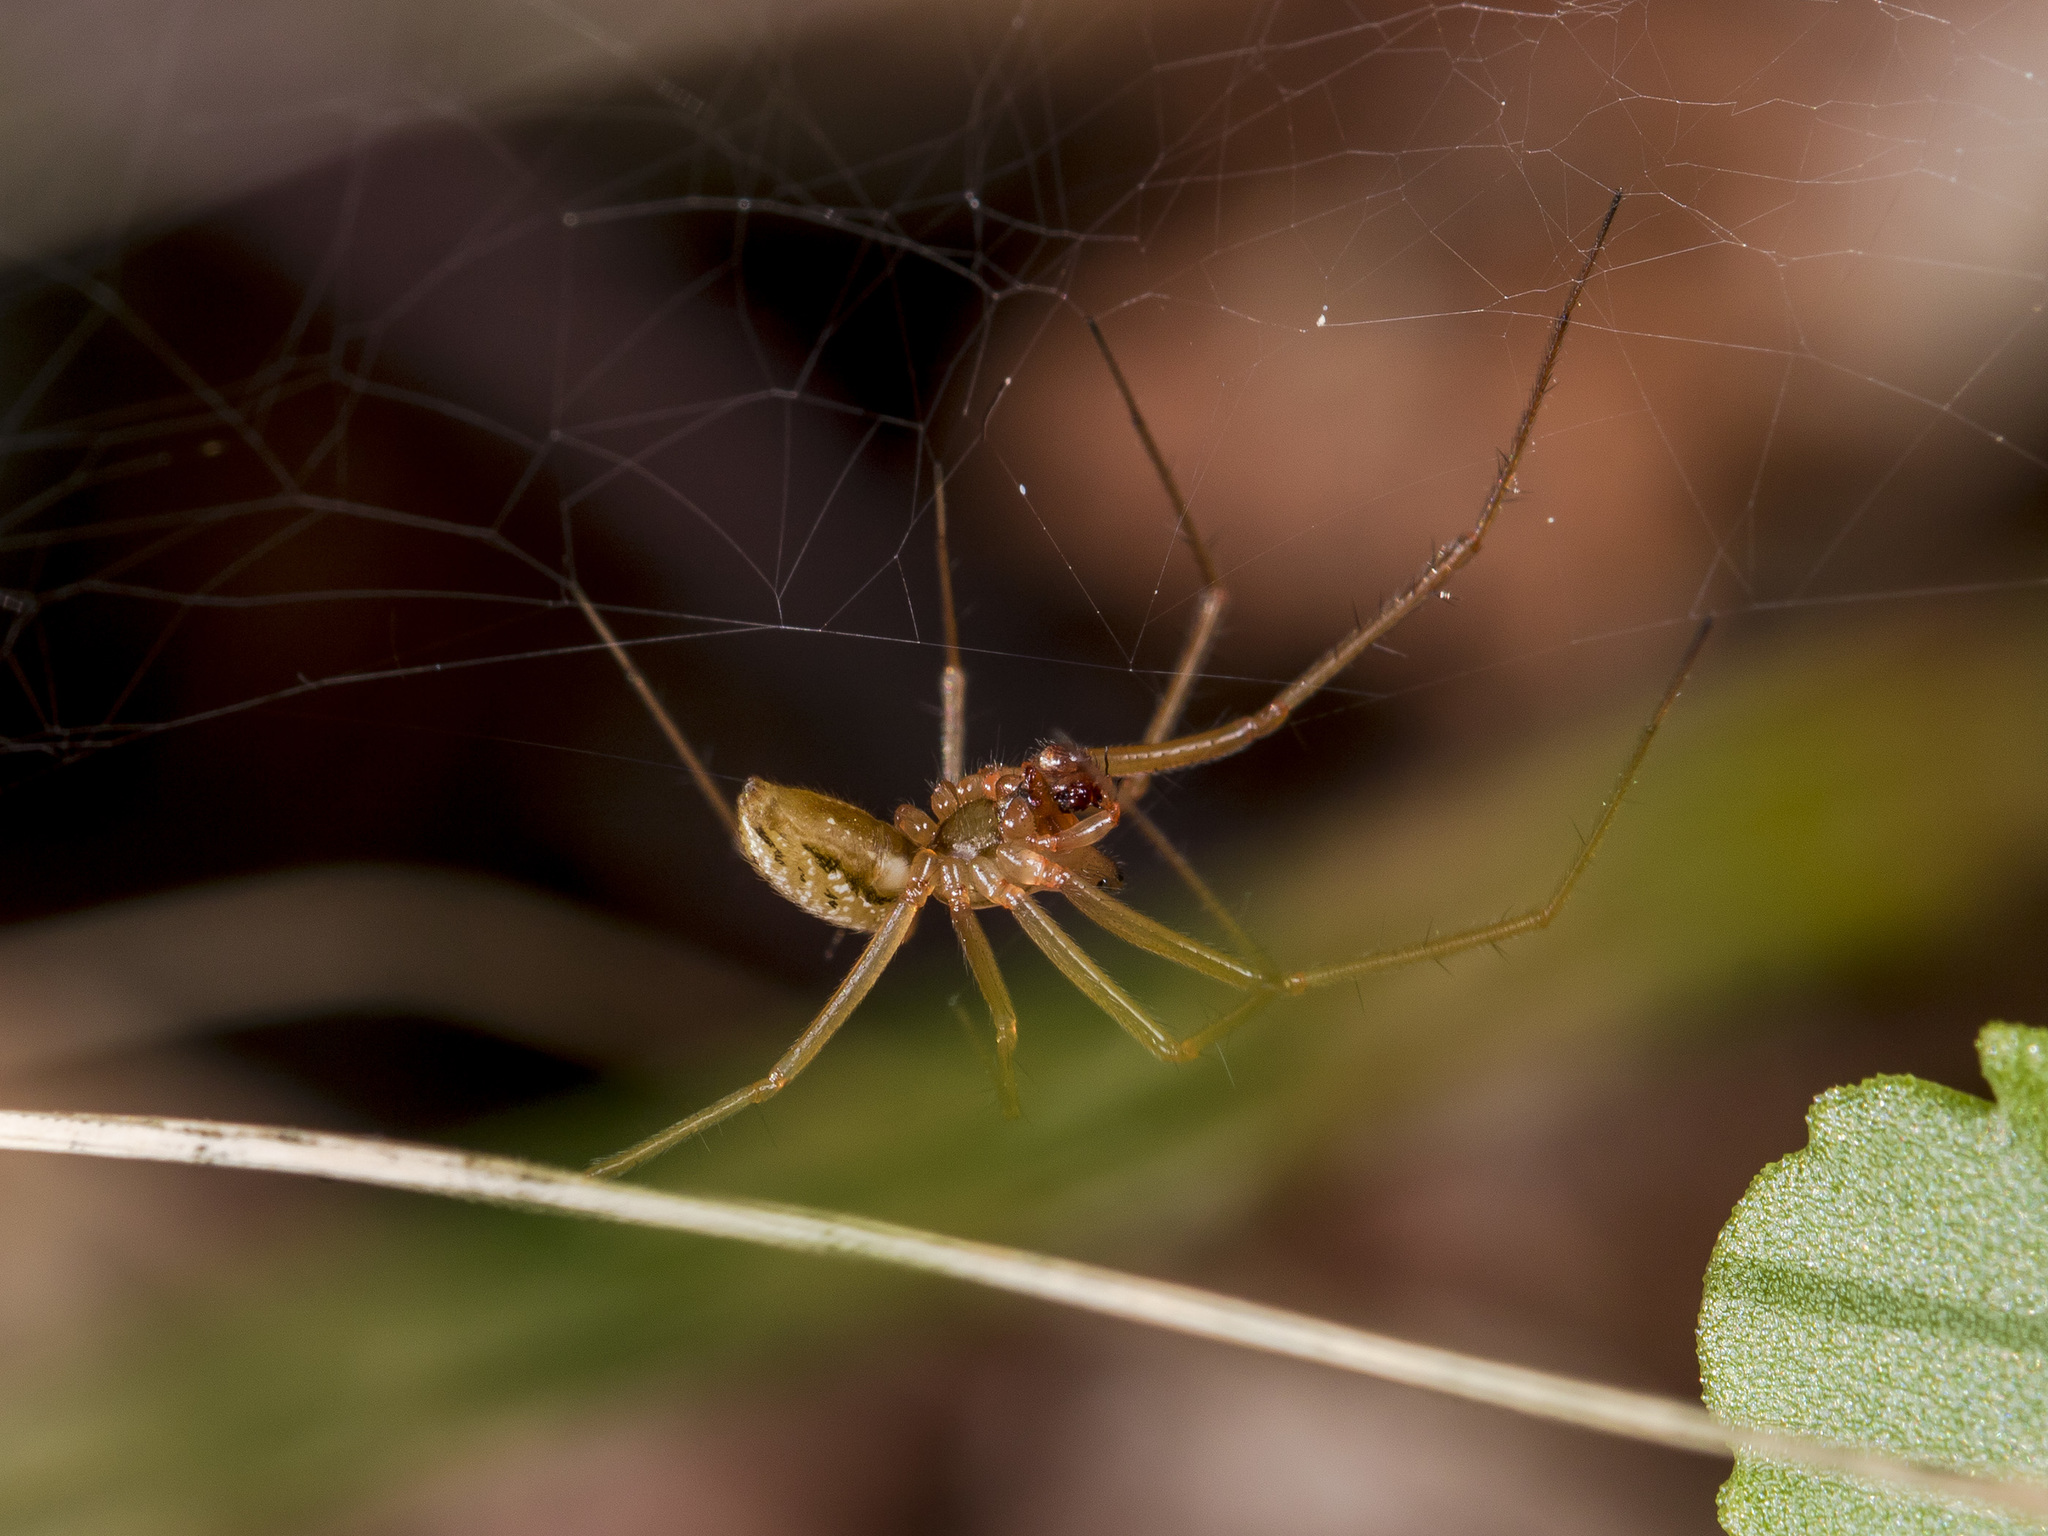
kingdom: Animalia
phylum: Arthropoda
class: Arachnida
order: Araneae
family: Linyphiidae
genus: Bolyphantes
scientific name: Bolyphantes alticeps
